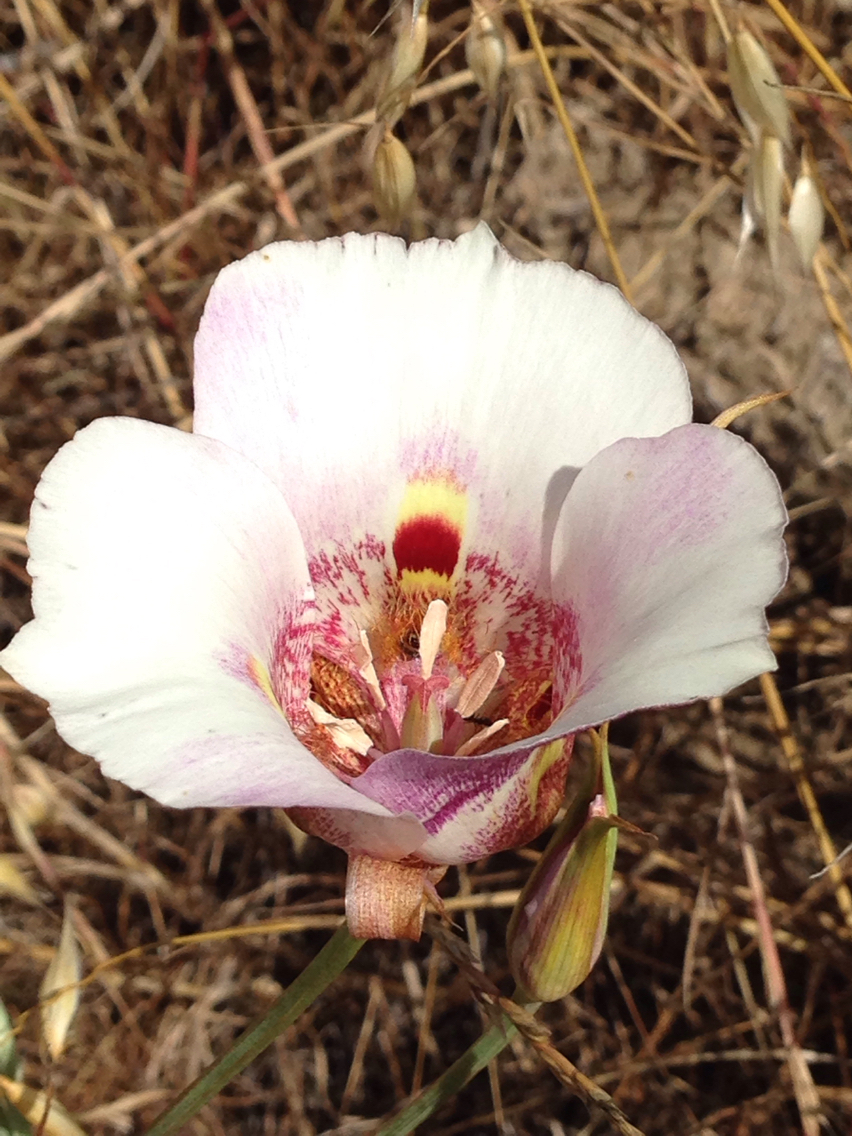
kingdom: Plantae
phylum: Tracheophyta
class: Liliopsida
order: Liliales
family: Liliaceae
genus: Calochortus
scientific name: Calochortus venustus
